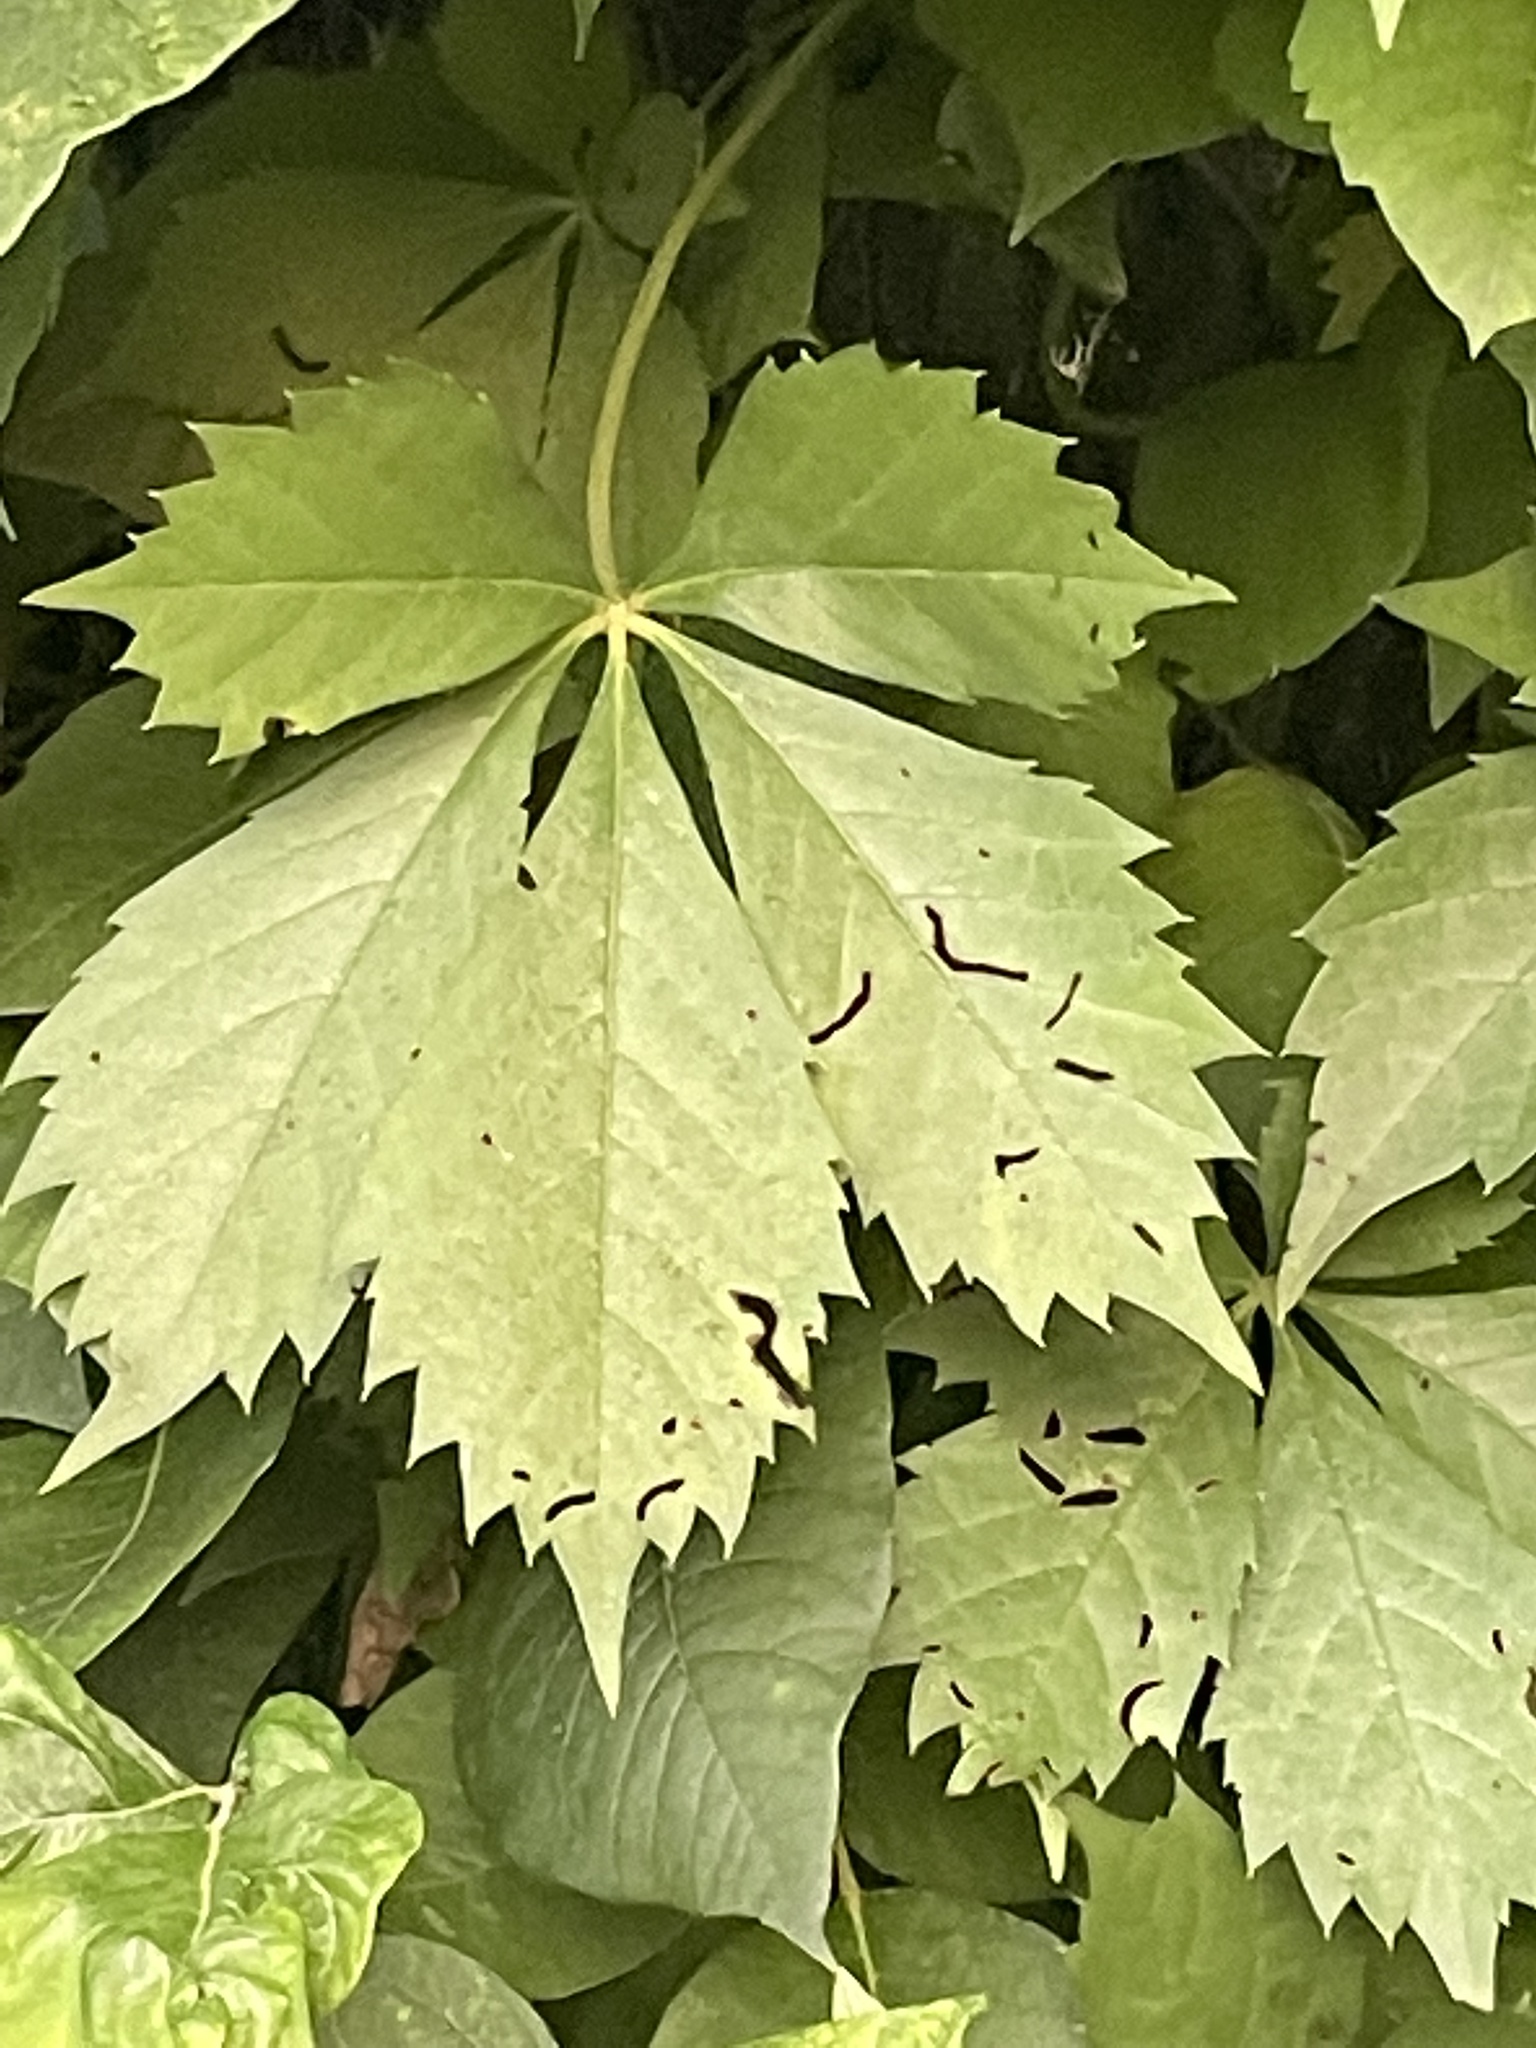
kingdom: Plantae
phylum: Tracheophyta
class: Magnoliopsida
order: Vitales
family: Vitaceae
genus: Parthenocissus
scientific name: Parthenocissus quinquefolia
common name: Virginia-creeper
